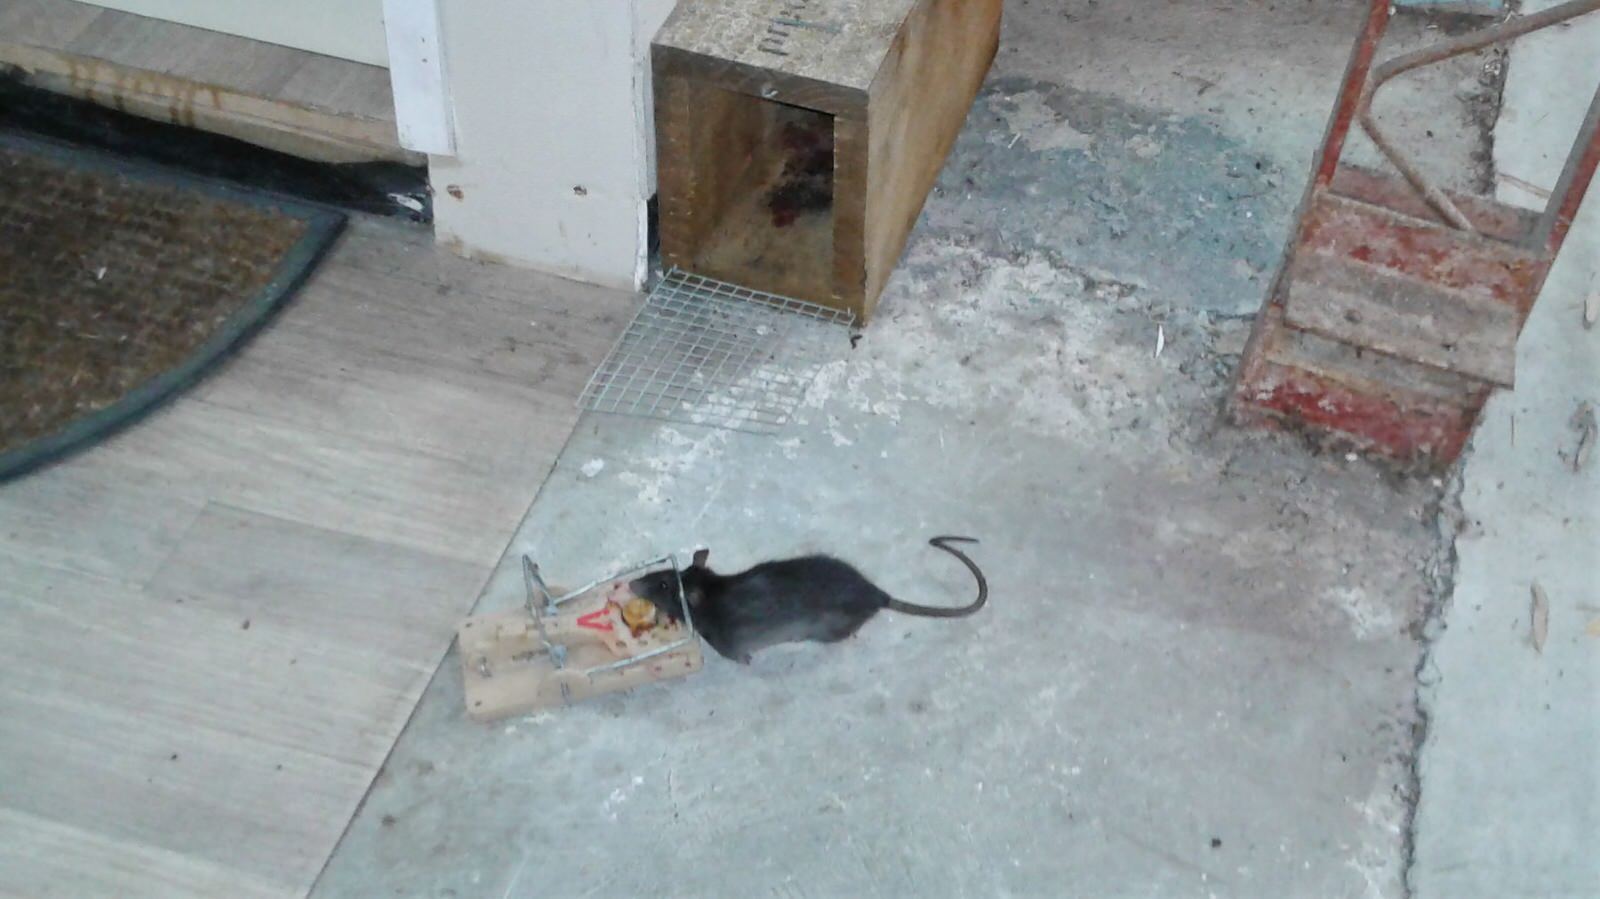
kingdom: Animalia
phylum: Chordata
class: Mammalia
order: Rodentia
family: Muridae
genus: Rattus
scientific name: Rattus rattus
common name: Black rat
